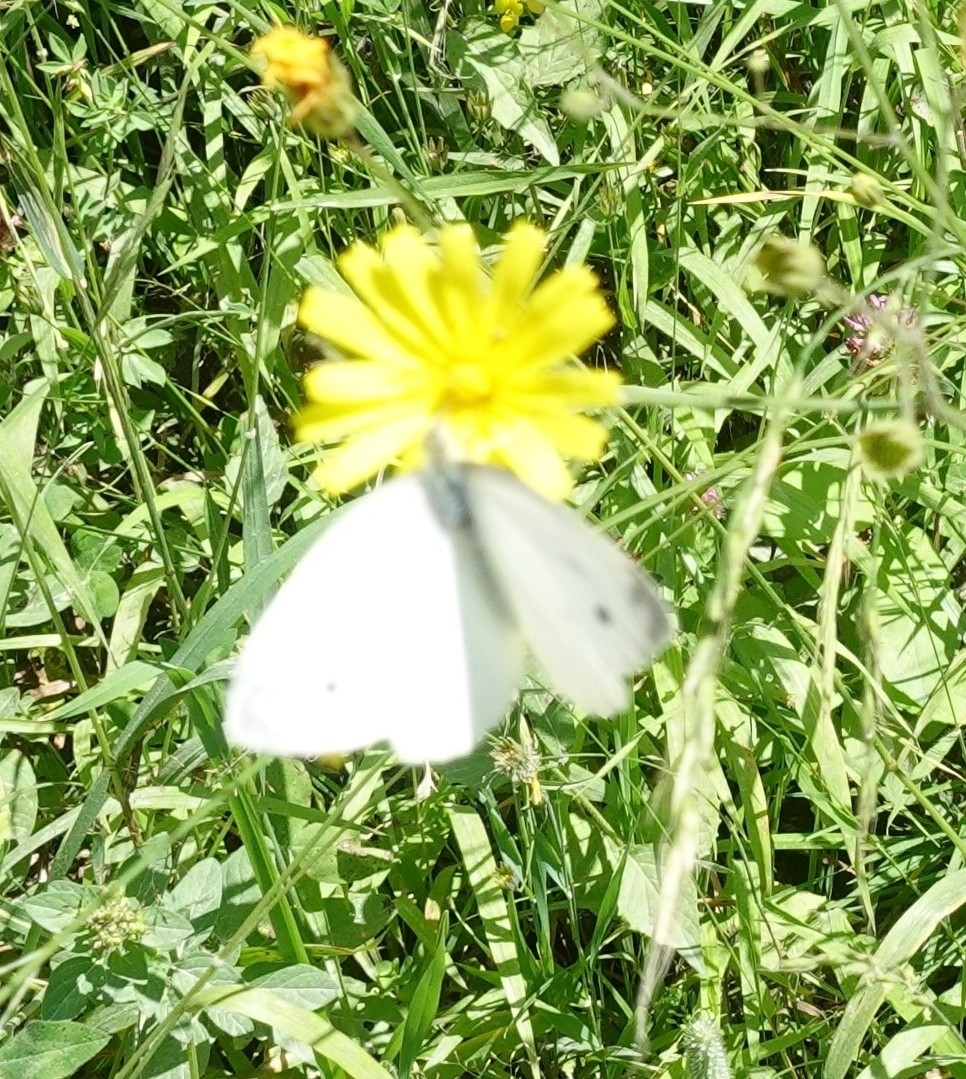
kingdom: Animalia
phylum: Arthropoda
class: Insecta
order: Lepidoptera
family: Pieridae
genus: Pieris
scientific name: Pieris rapae
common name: Small white
